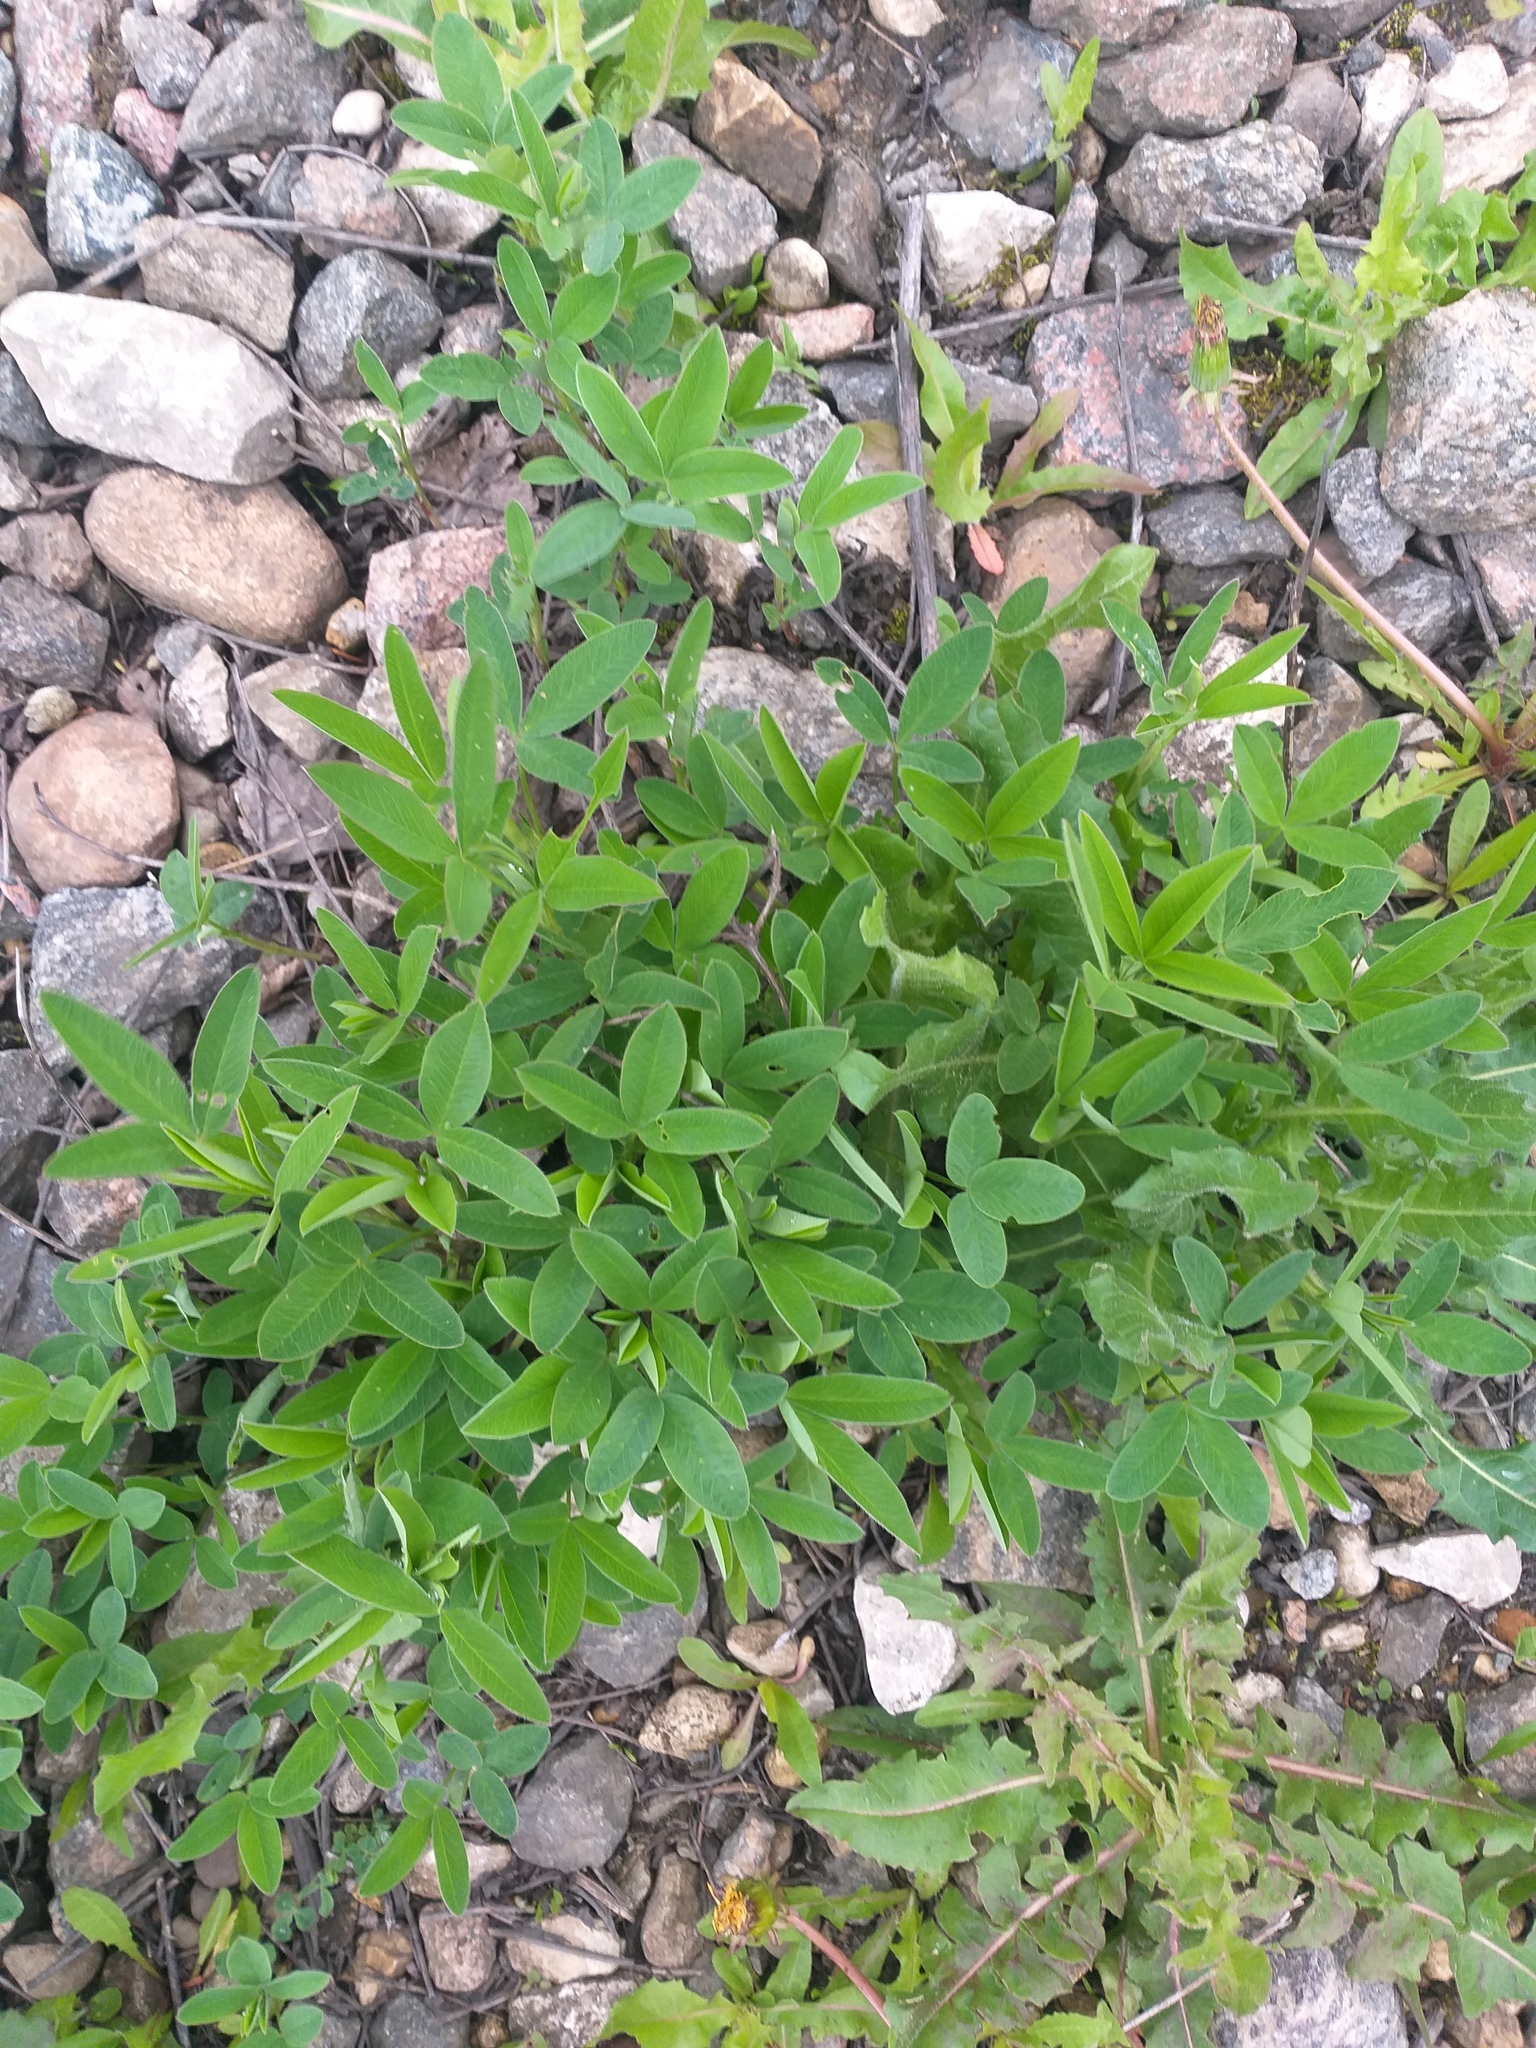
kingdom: Plantae
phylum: Tracheophyta
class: Magnoliopsida
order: Fabales
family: Fabaceae
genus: Trifolium
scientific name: Trifolium medium
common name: Zigzag clover
